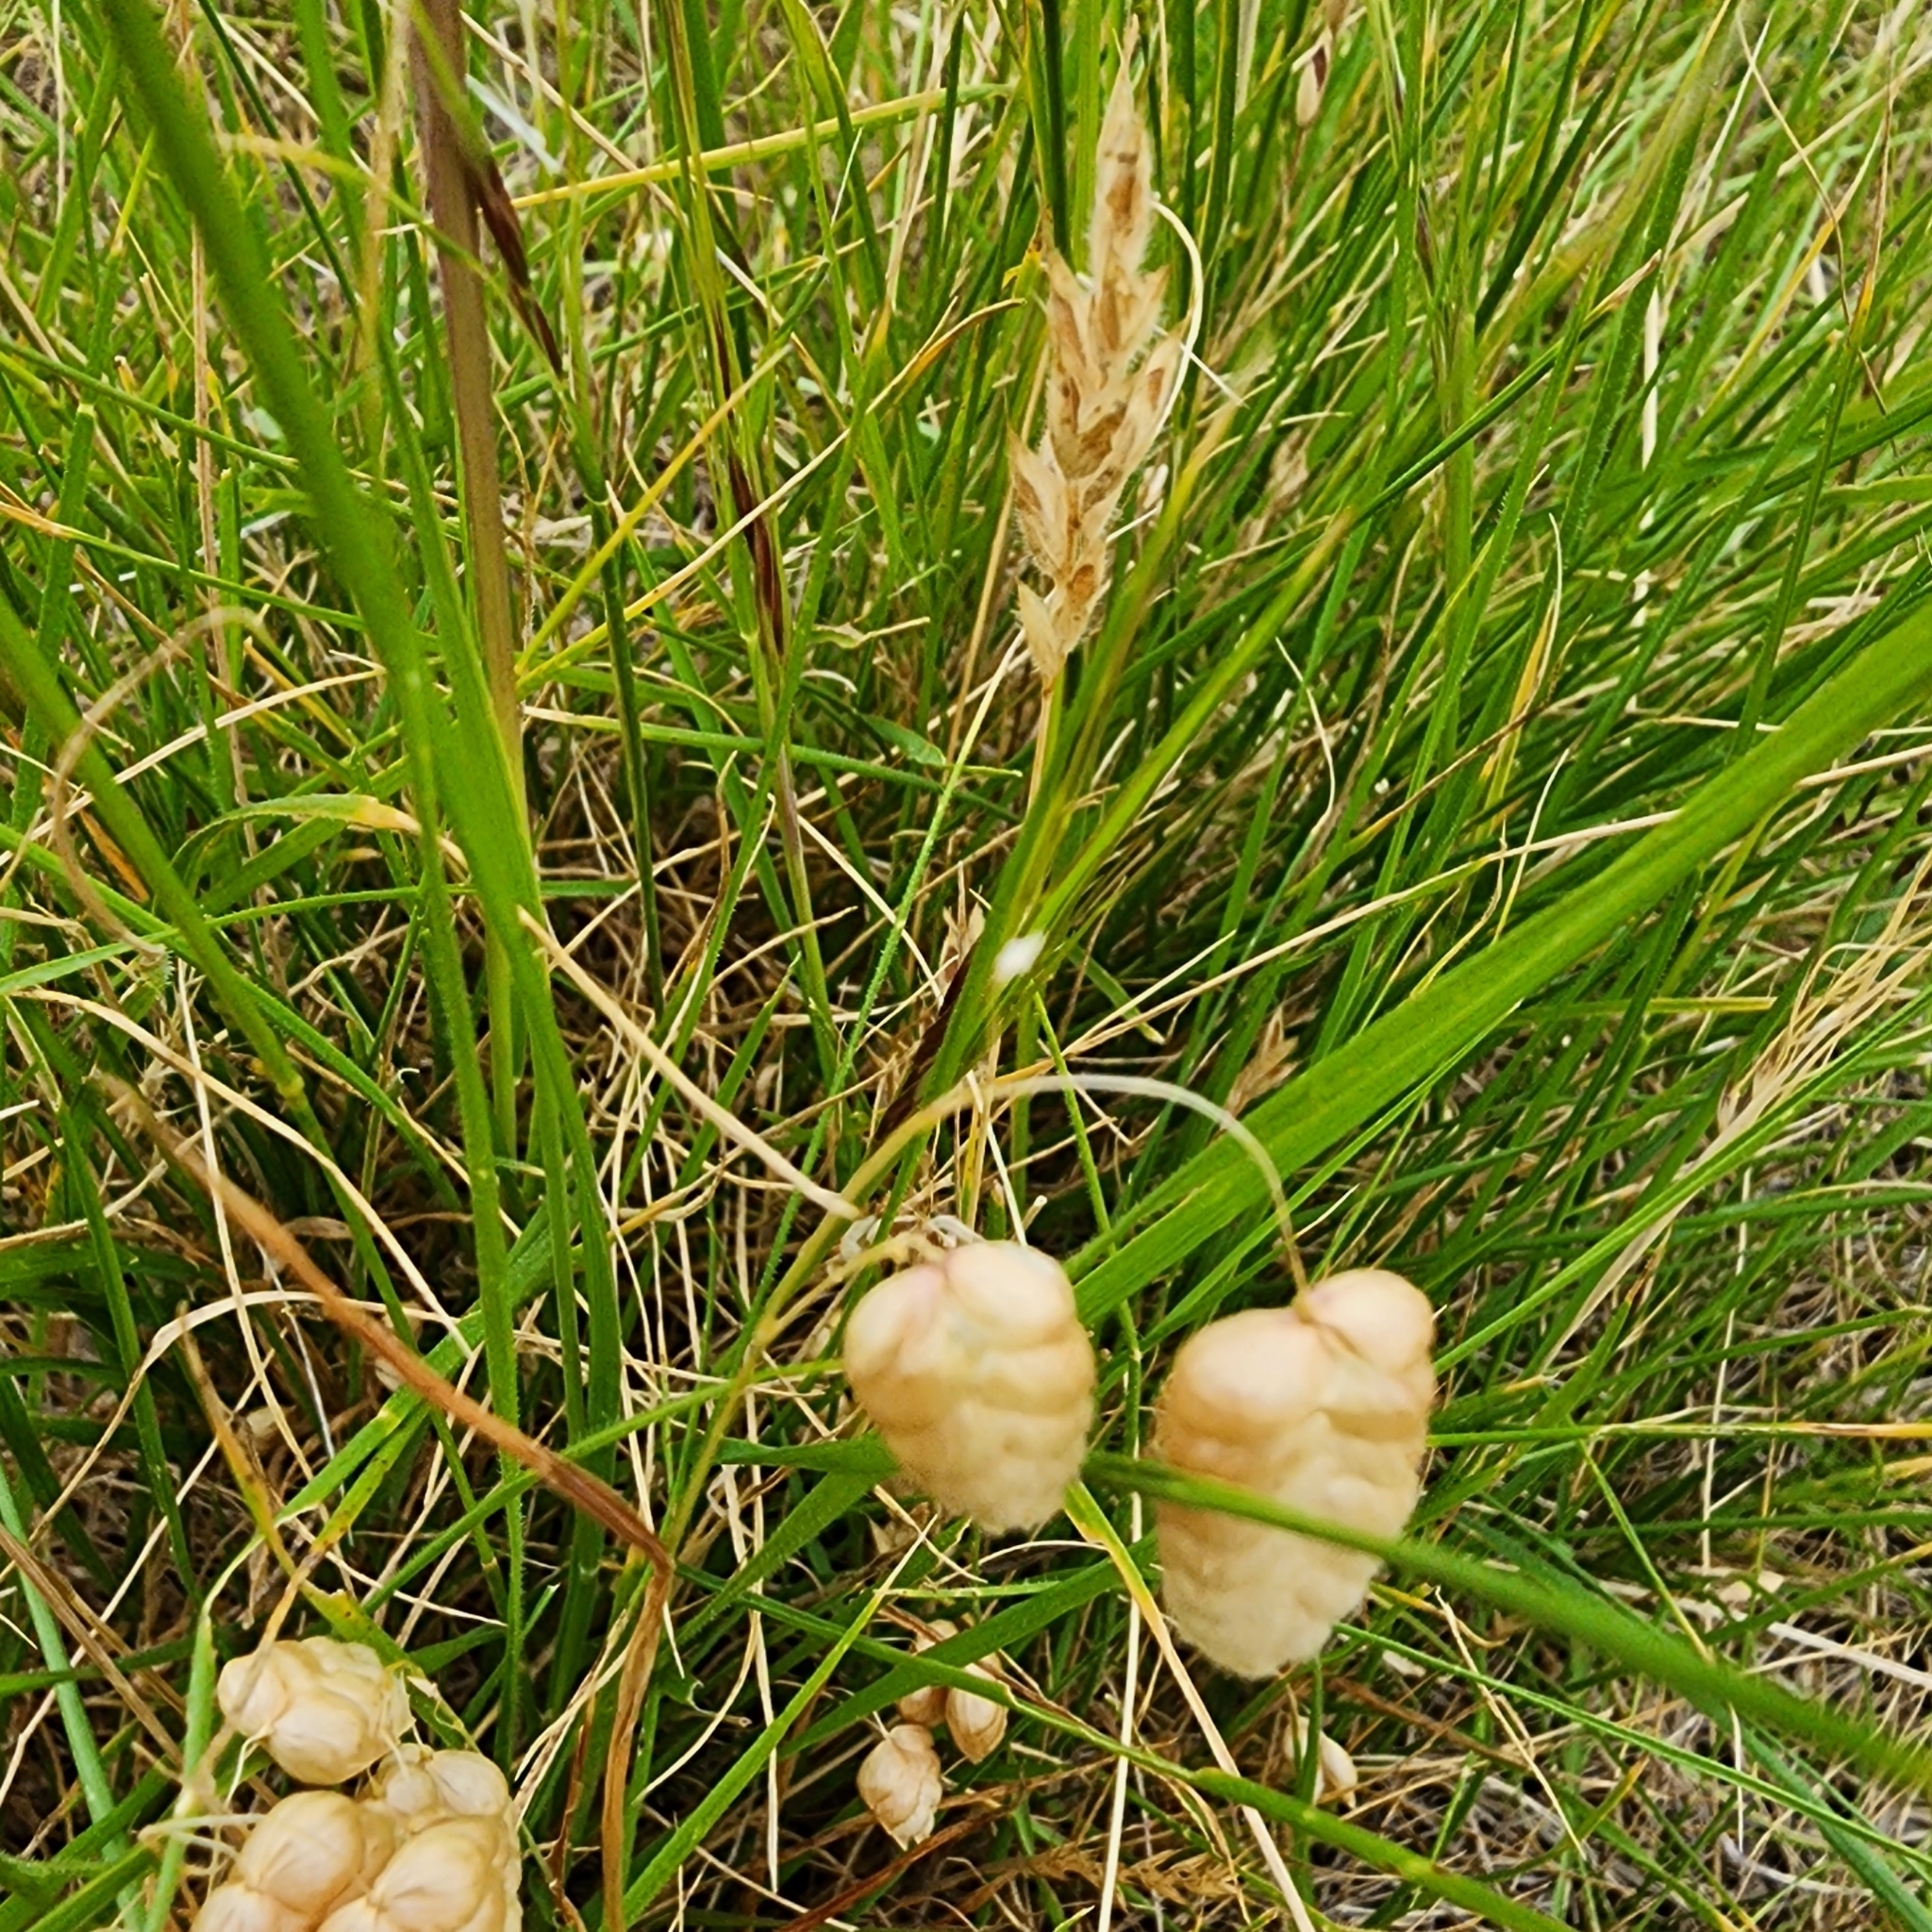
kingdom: Plantae
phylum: Tracheophyta
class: Liliopsida
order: Poales
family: Poaceae
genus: Briza
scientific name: Briza maxima
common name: Big quakinggrass
